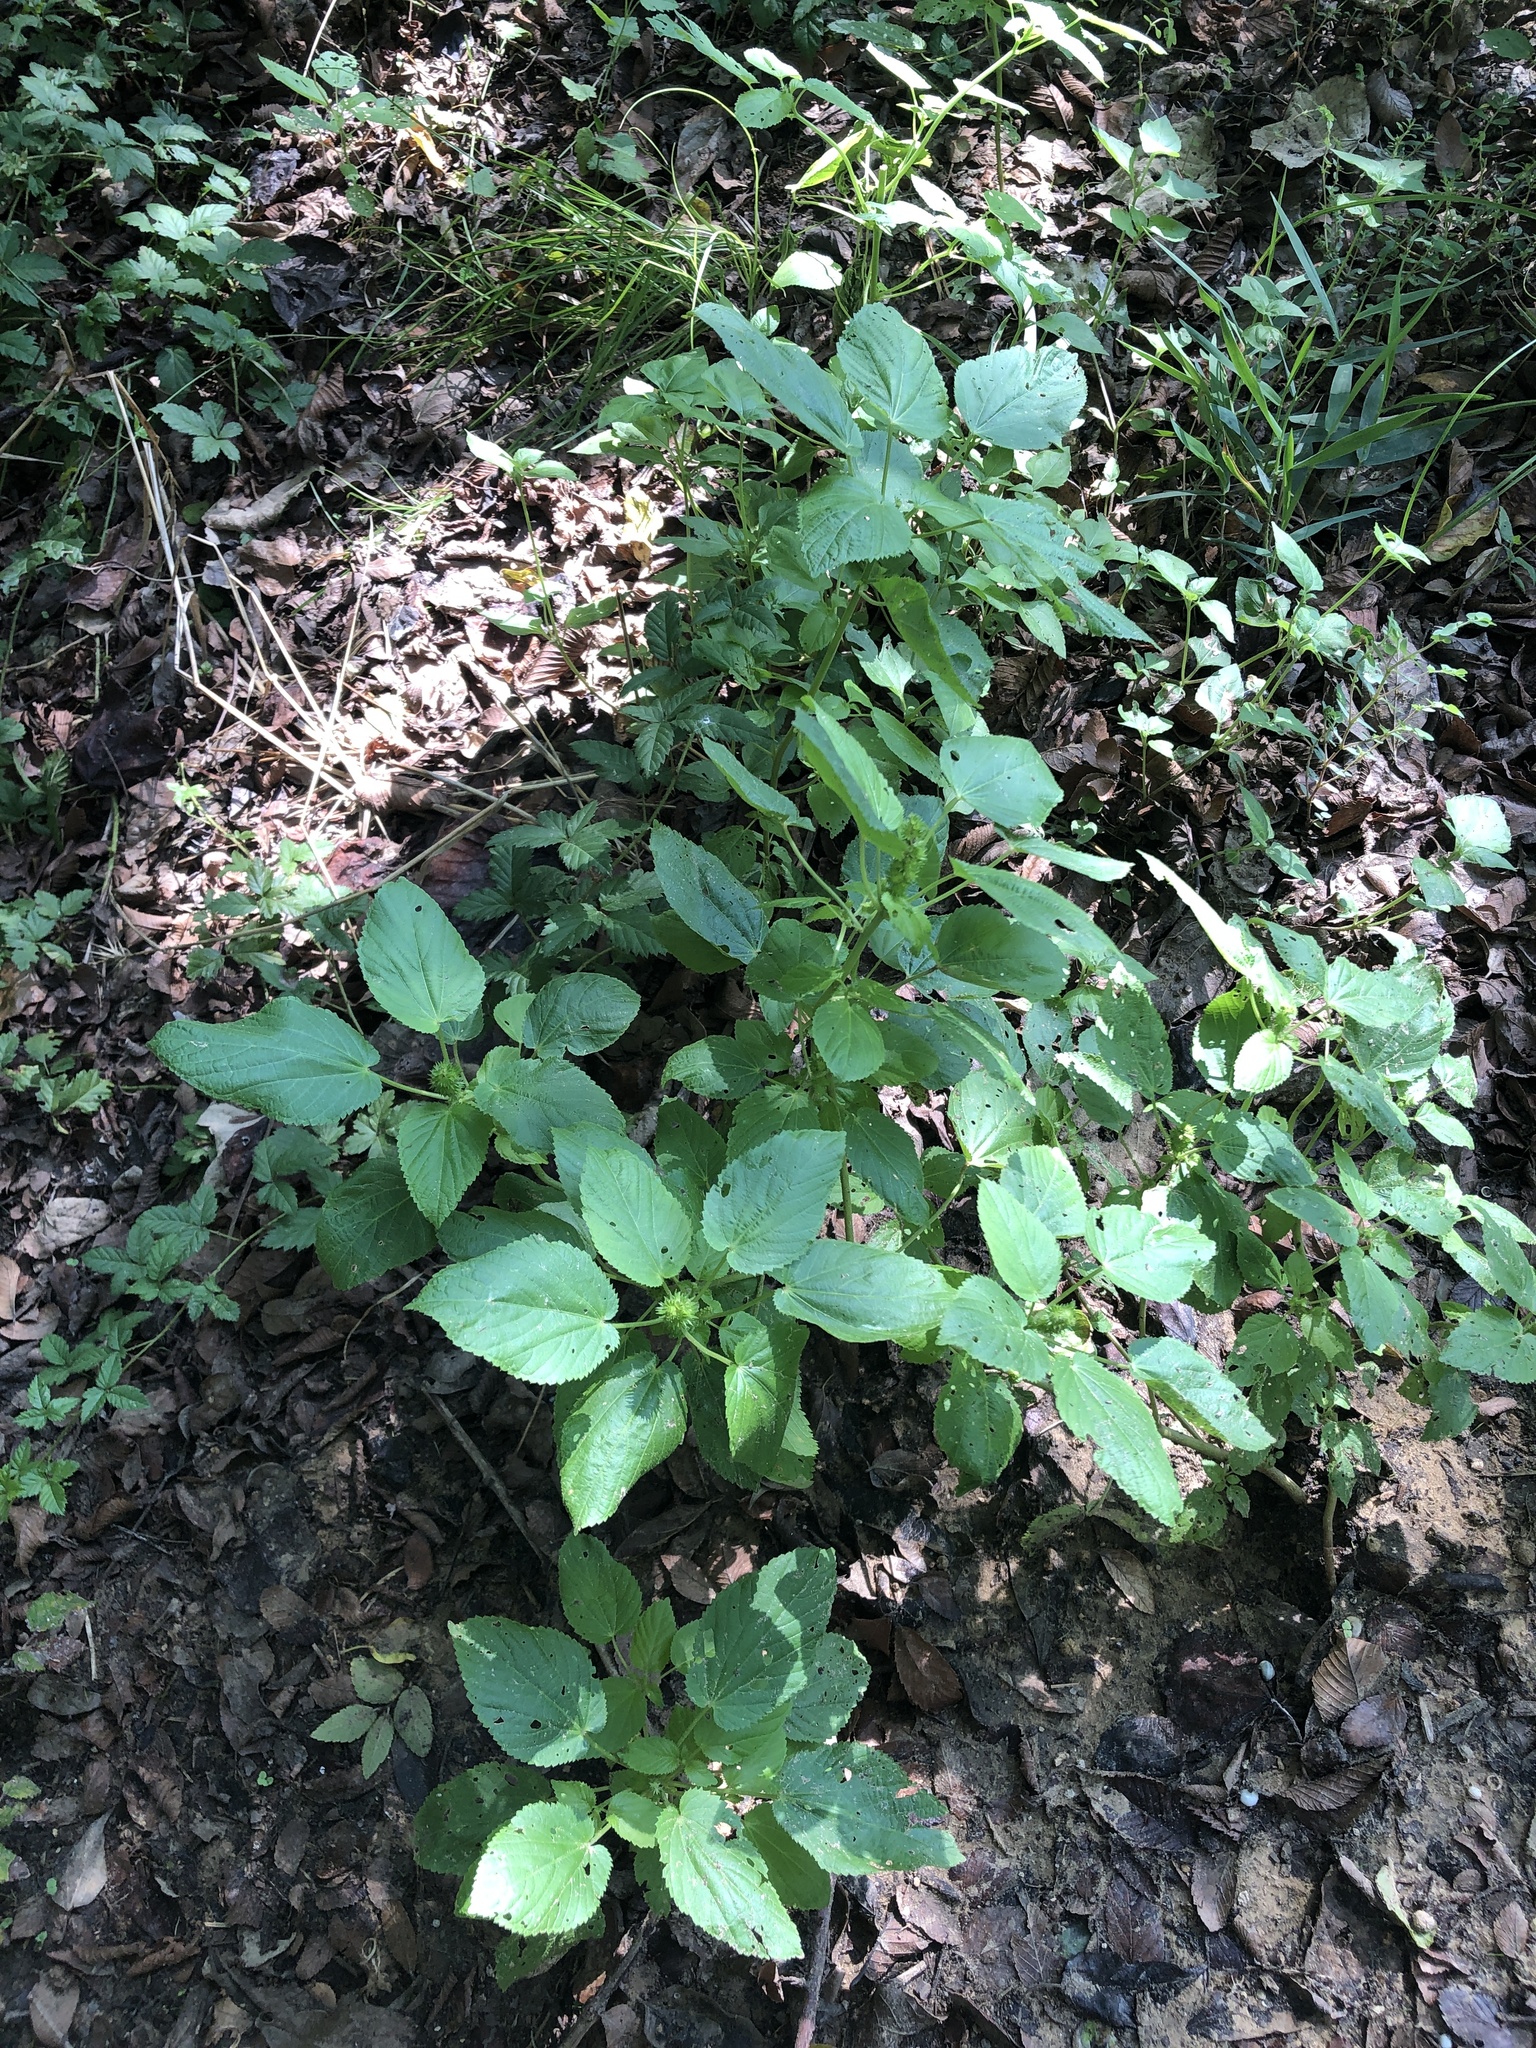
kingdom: Plantae
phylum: Tracheophyta
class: Magnoliopsida
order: Malpighiales
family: Euphorbiaceae
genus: Acalypha
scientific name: Acalypha ostryifolia
